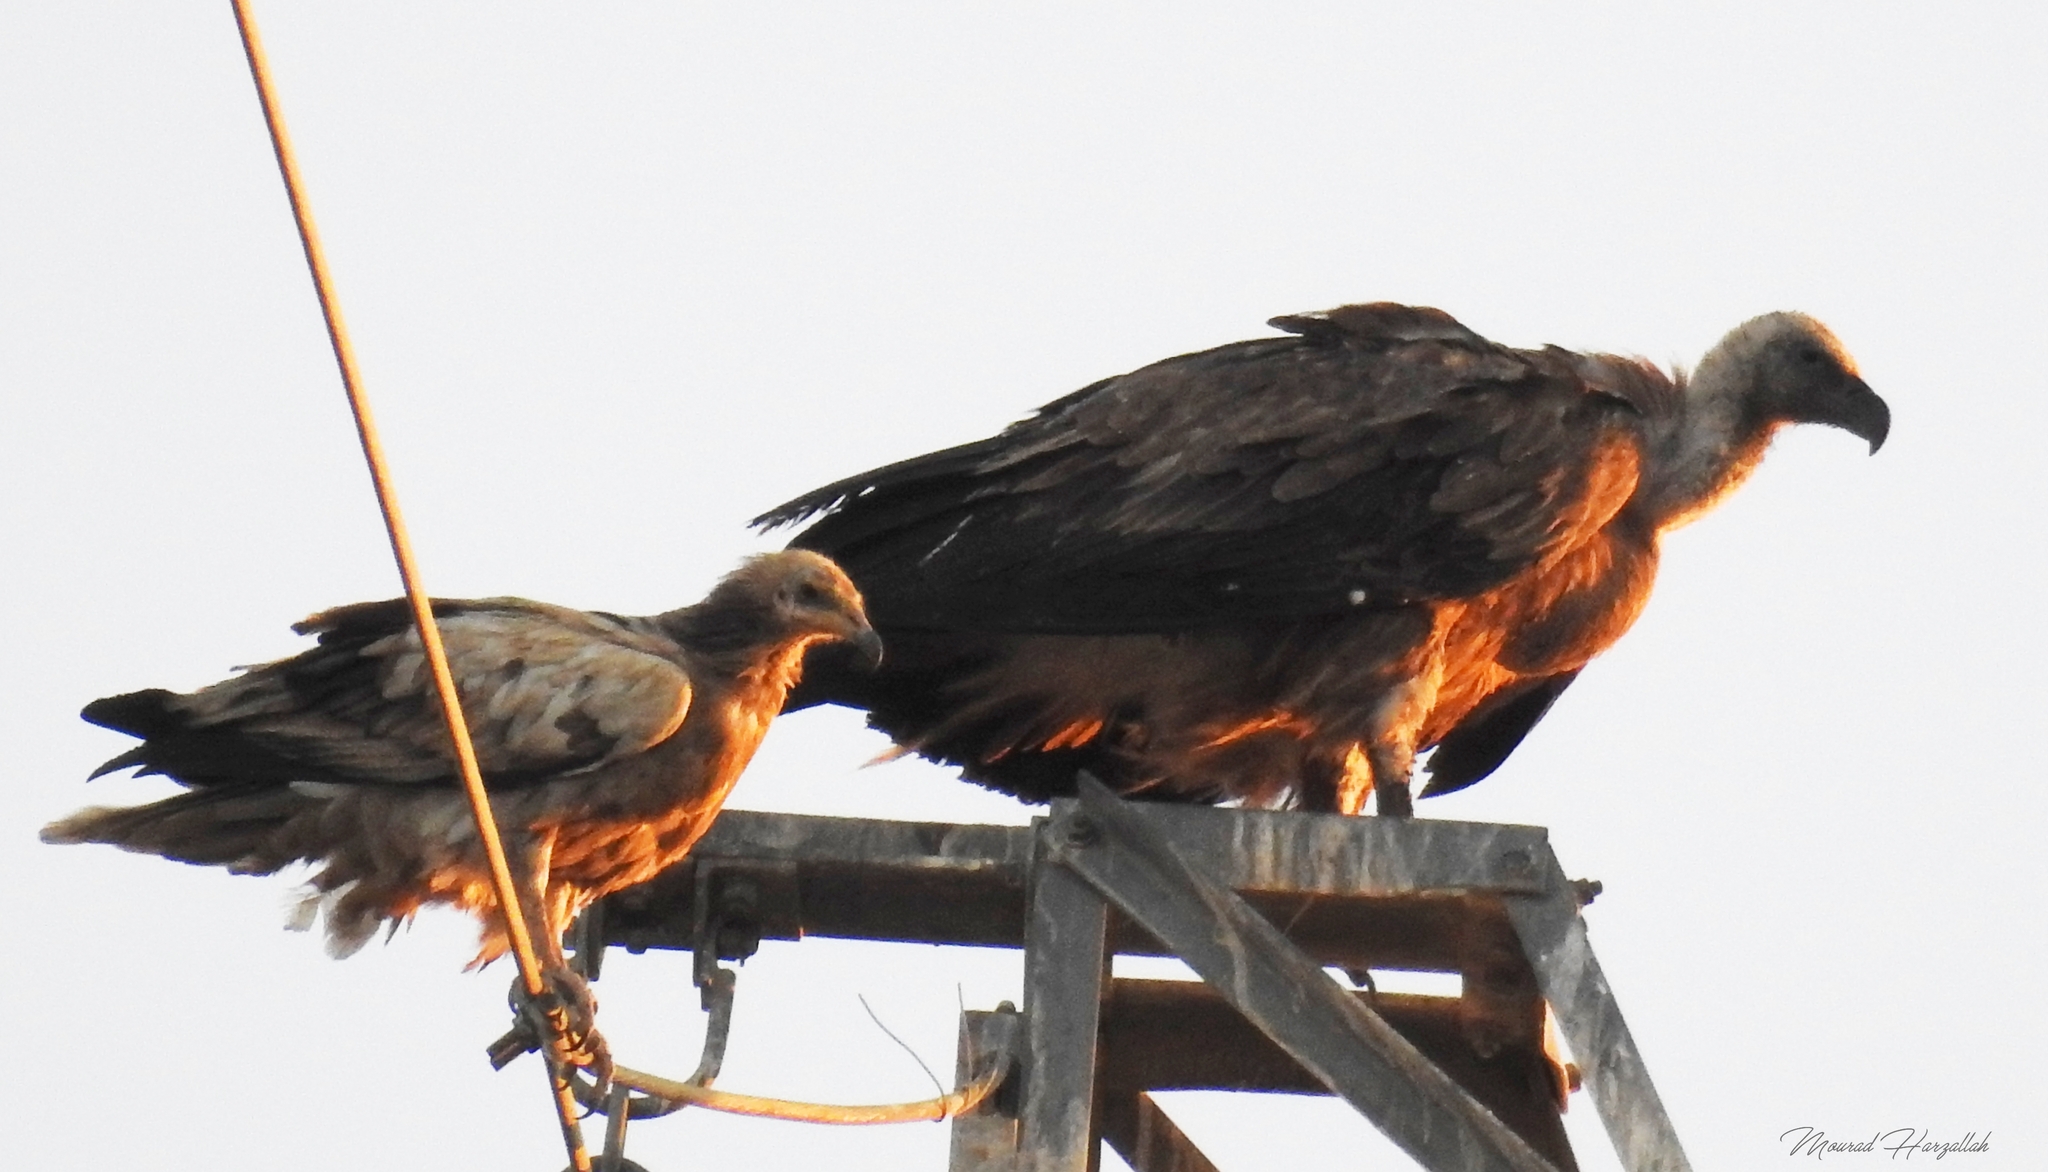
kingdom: Animalia
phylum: Chordata
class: Aves
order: Accipitriformes
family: Accipitridae
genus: Neophron
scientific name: Neophron percnopterus
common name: Egyptian vulture
